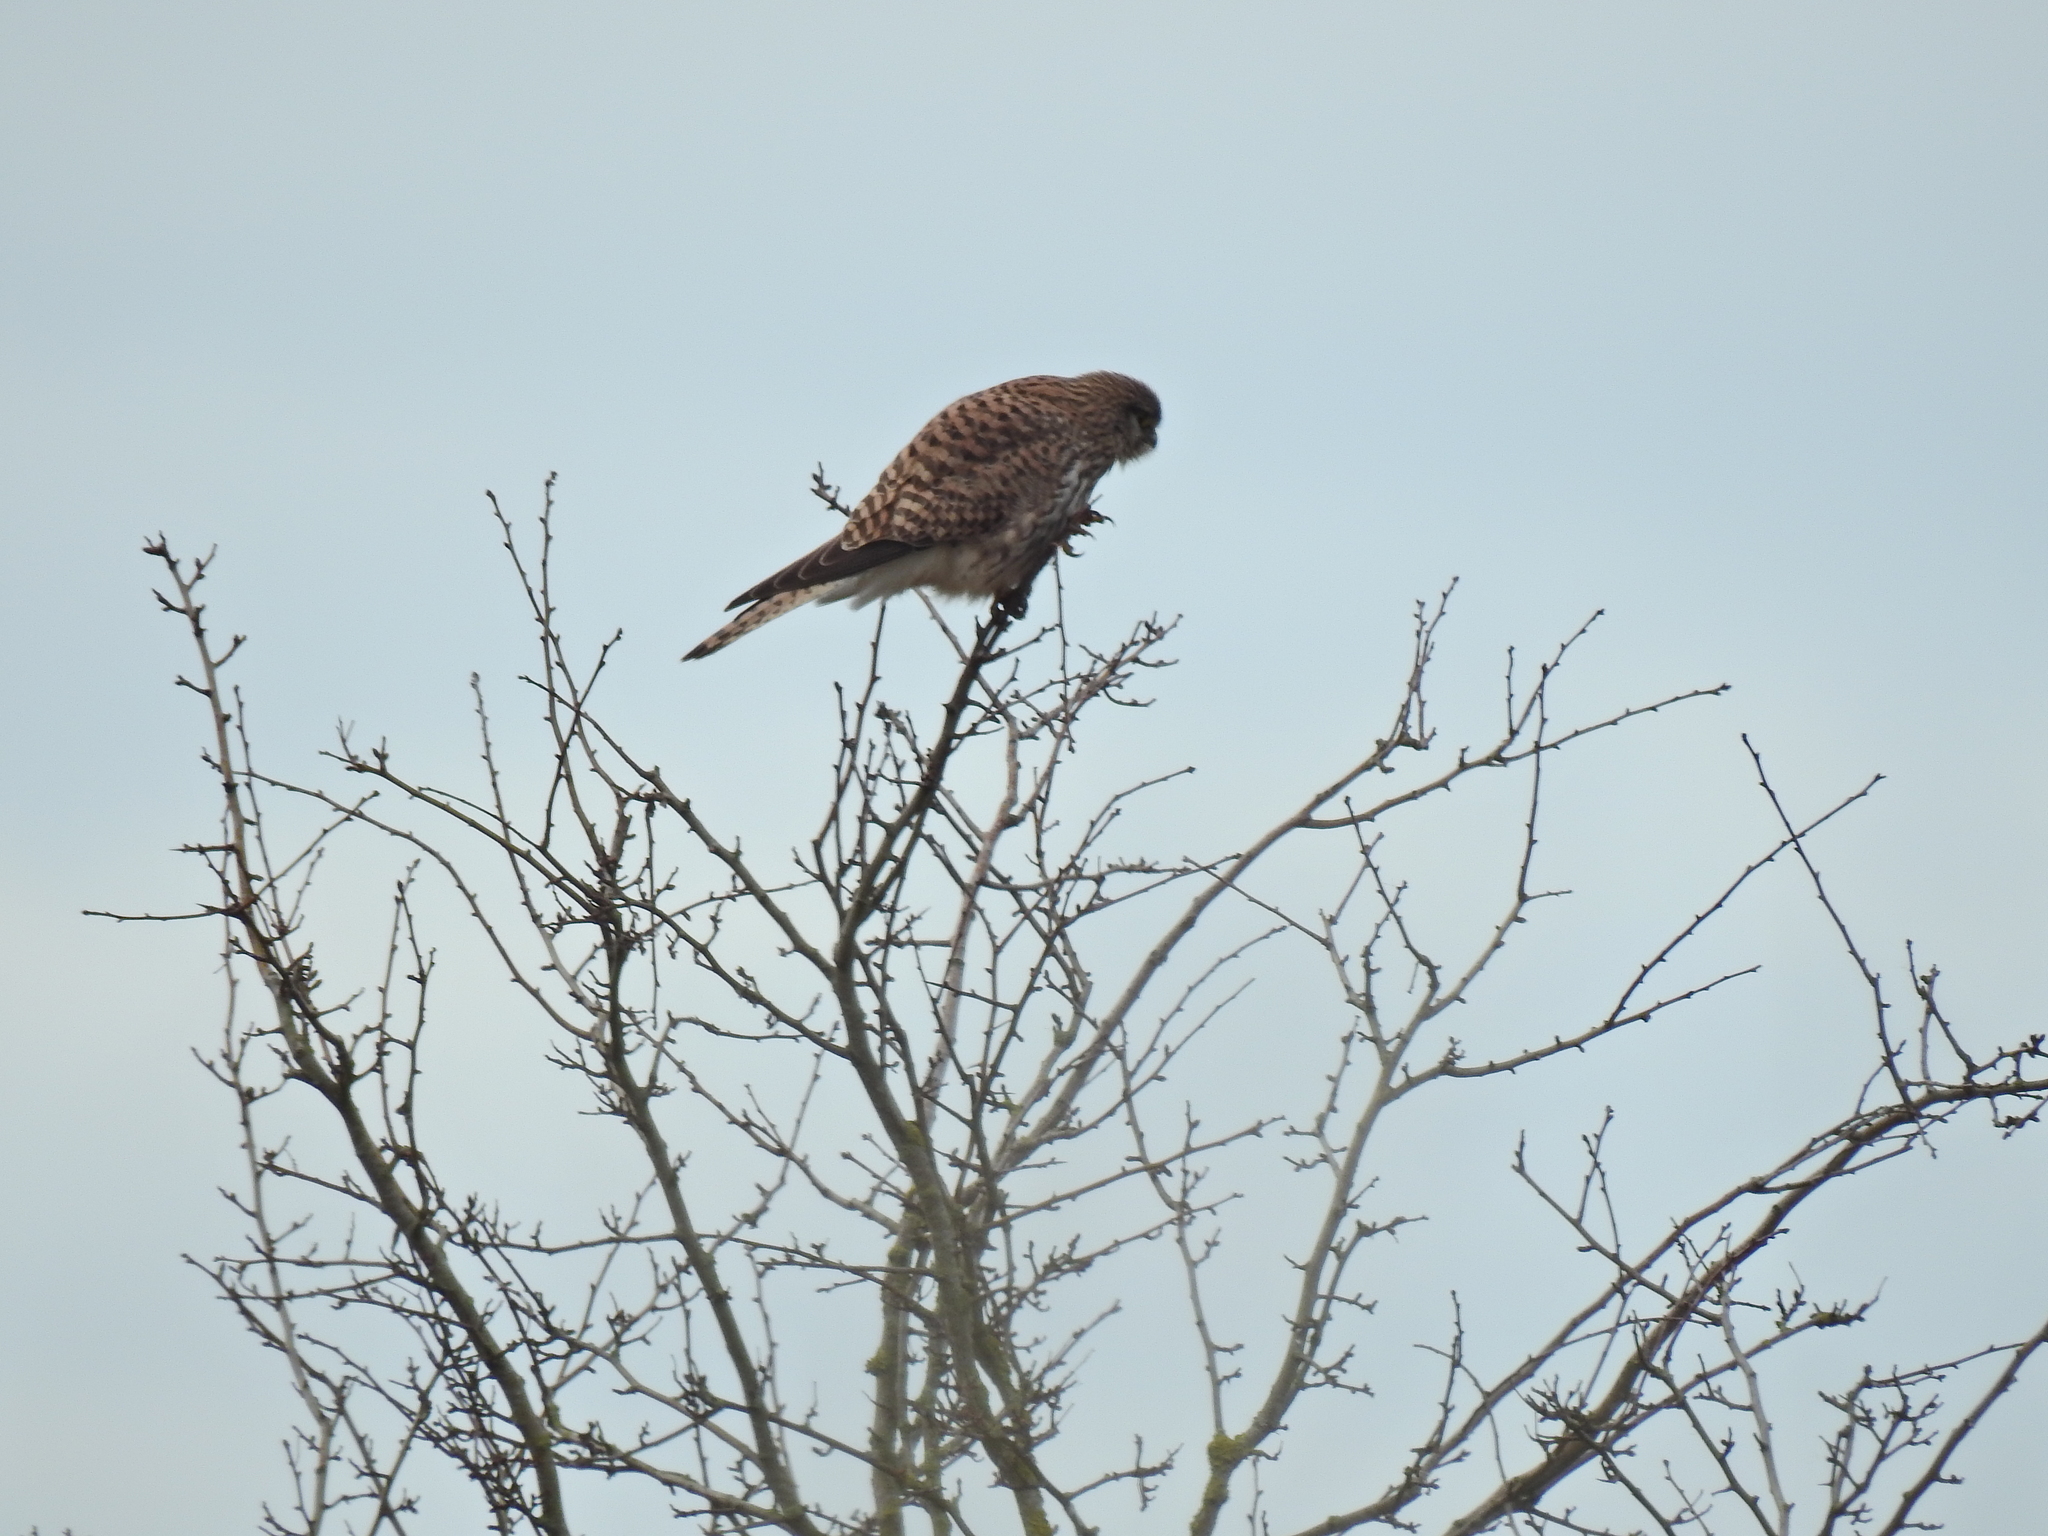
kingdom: Animalia
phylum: Chordata
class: Aves
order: Falconiformes
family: Falconidae
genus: Falco
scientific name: Falco tinnunculus
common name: Common kestrel
